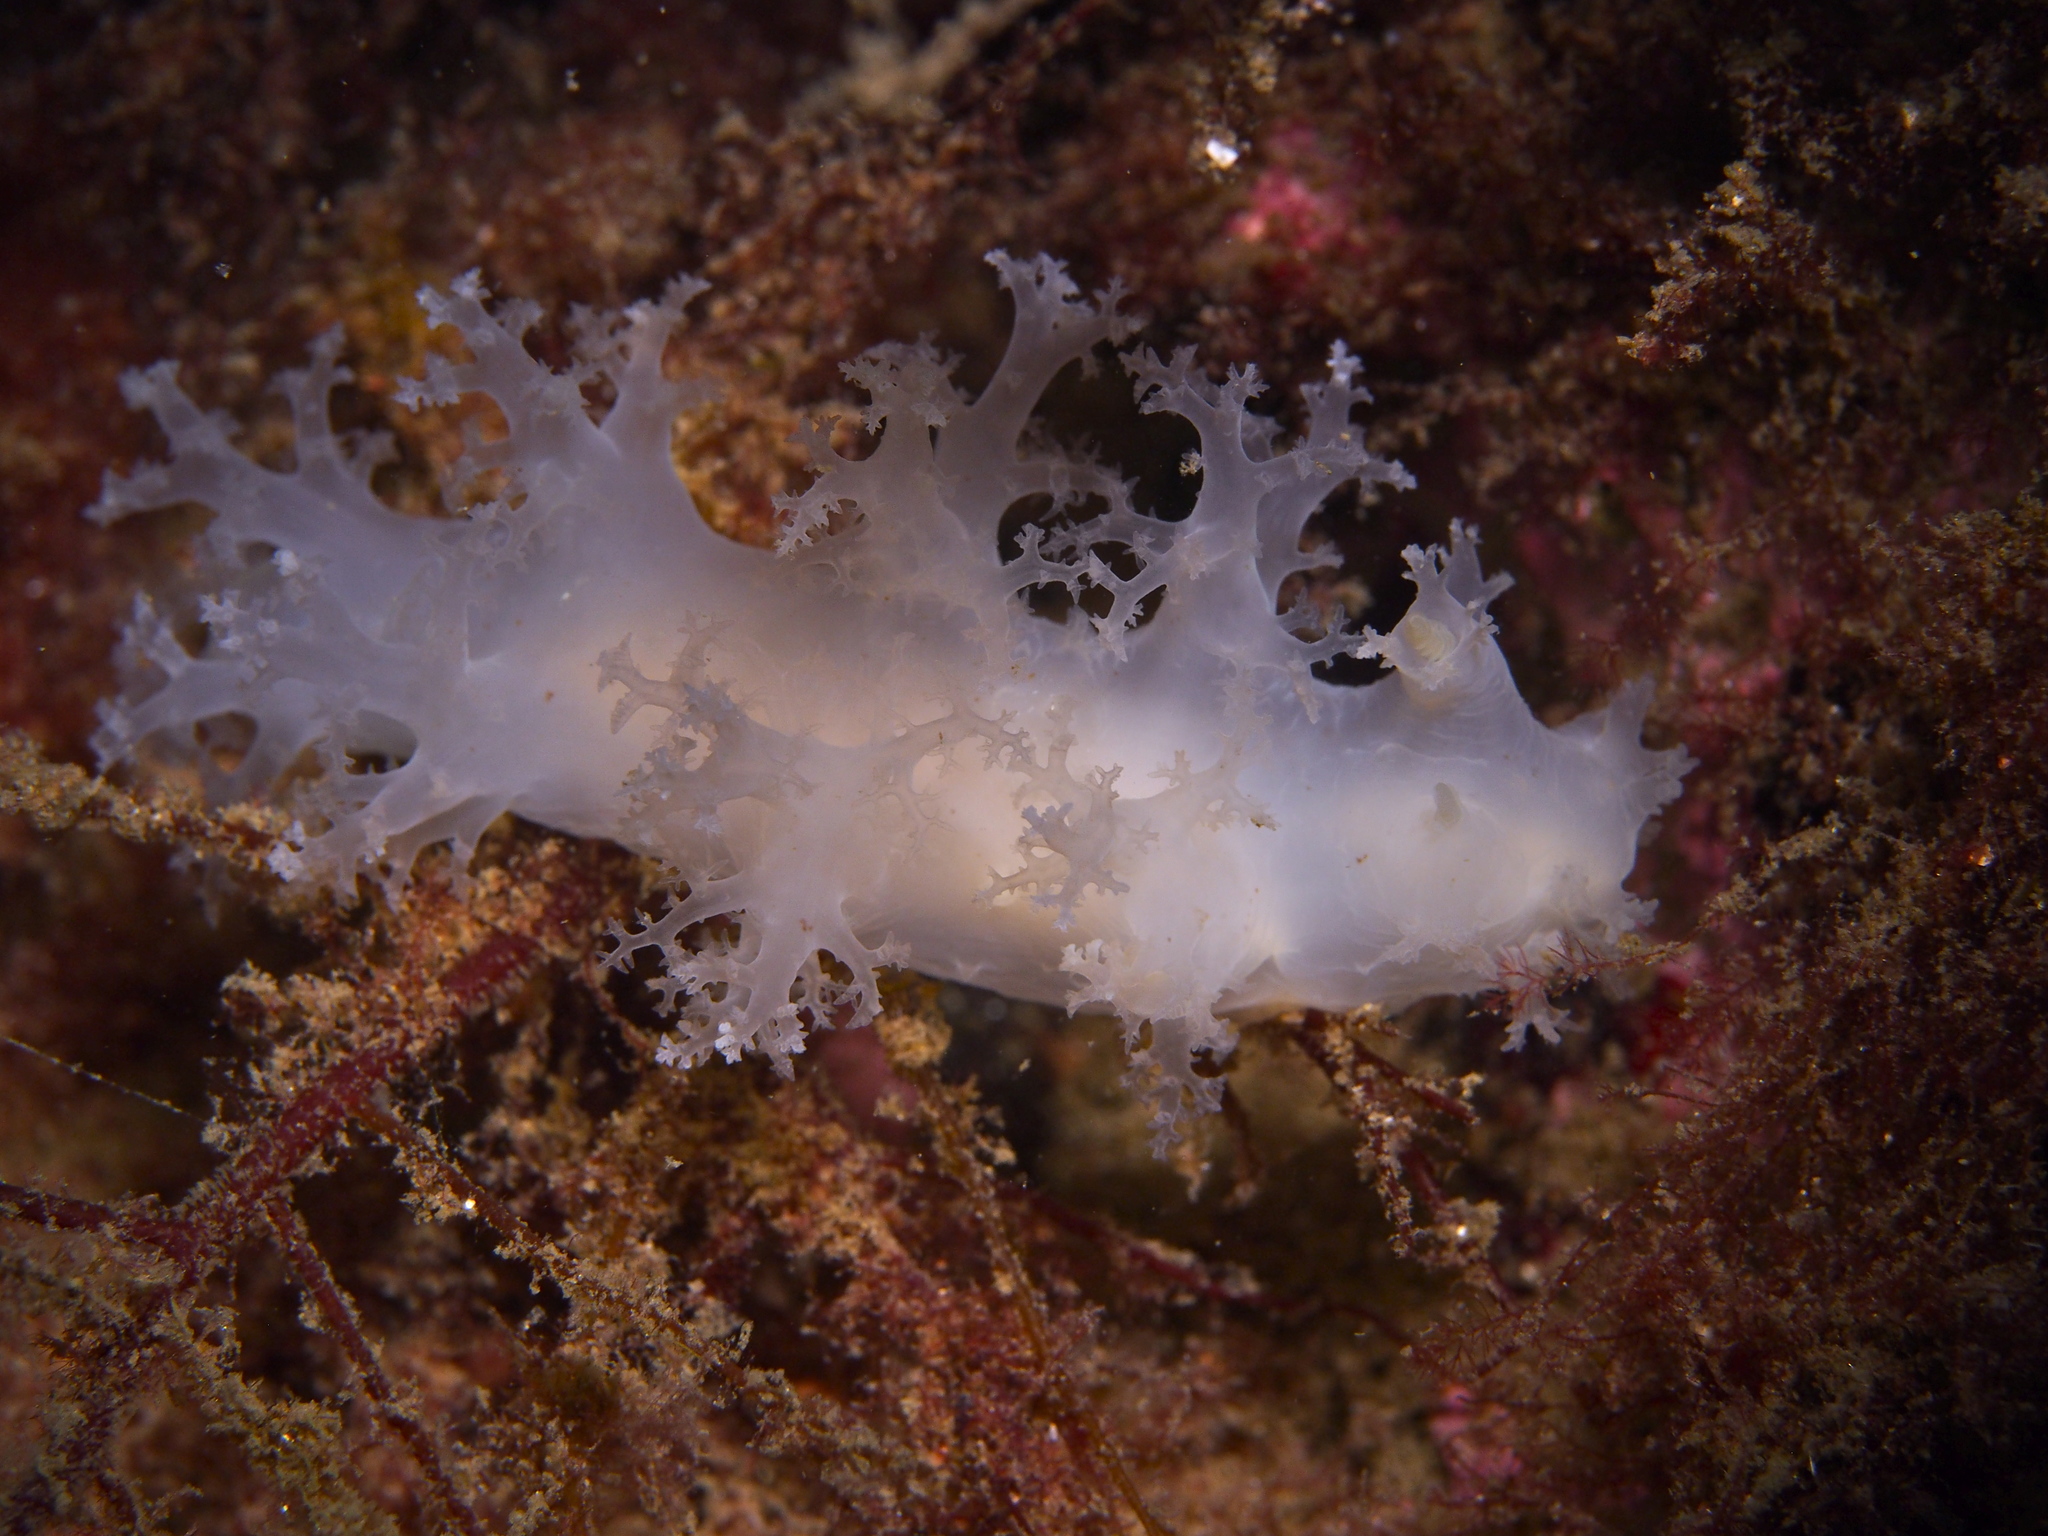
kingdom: Animalia
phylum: Mollusca
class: Gastropoda
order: Nudibranchia
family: Dendronotidae
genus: Dendronotus
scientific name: Dendronotus lacteus
